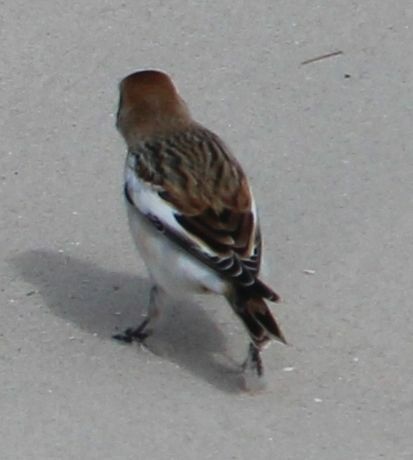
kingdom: Animalia
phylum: Chordata
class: Aves
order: Passeriformes
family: Calcariidae
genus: Plectrophenax
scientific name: Plectrophenax nivalis
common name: Snow bunting
